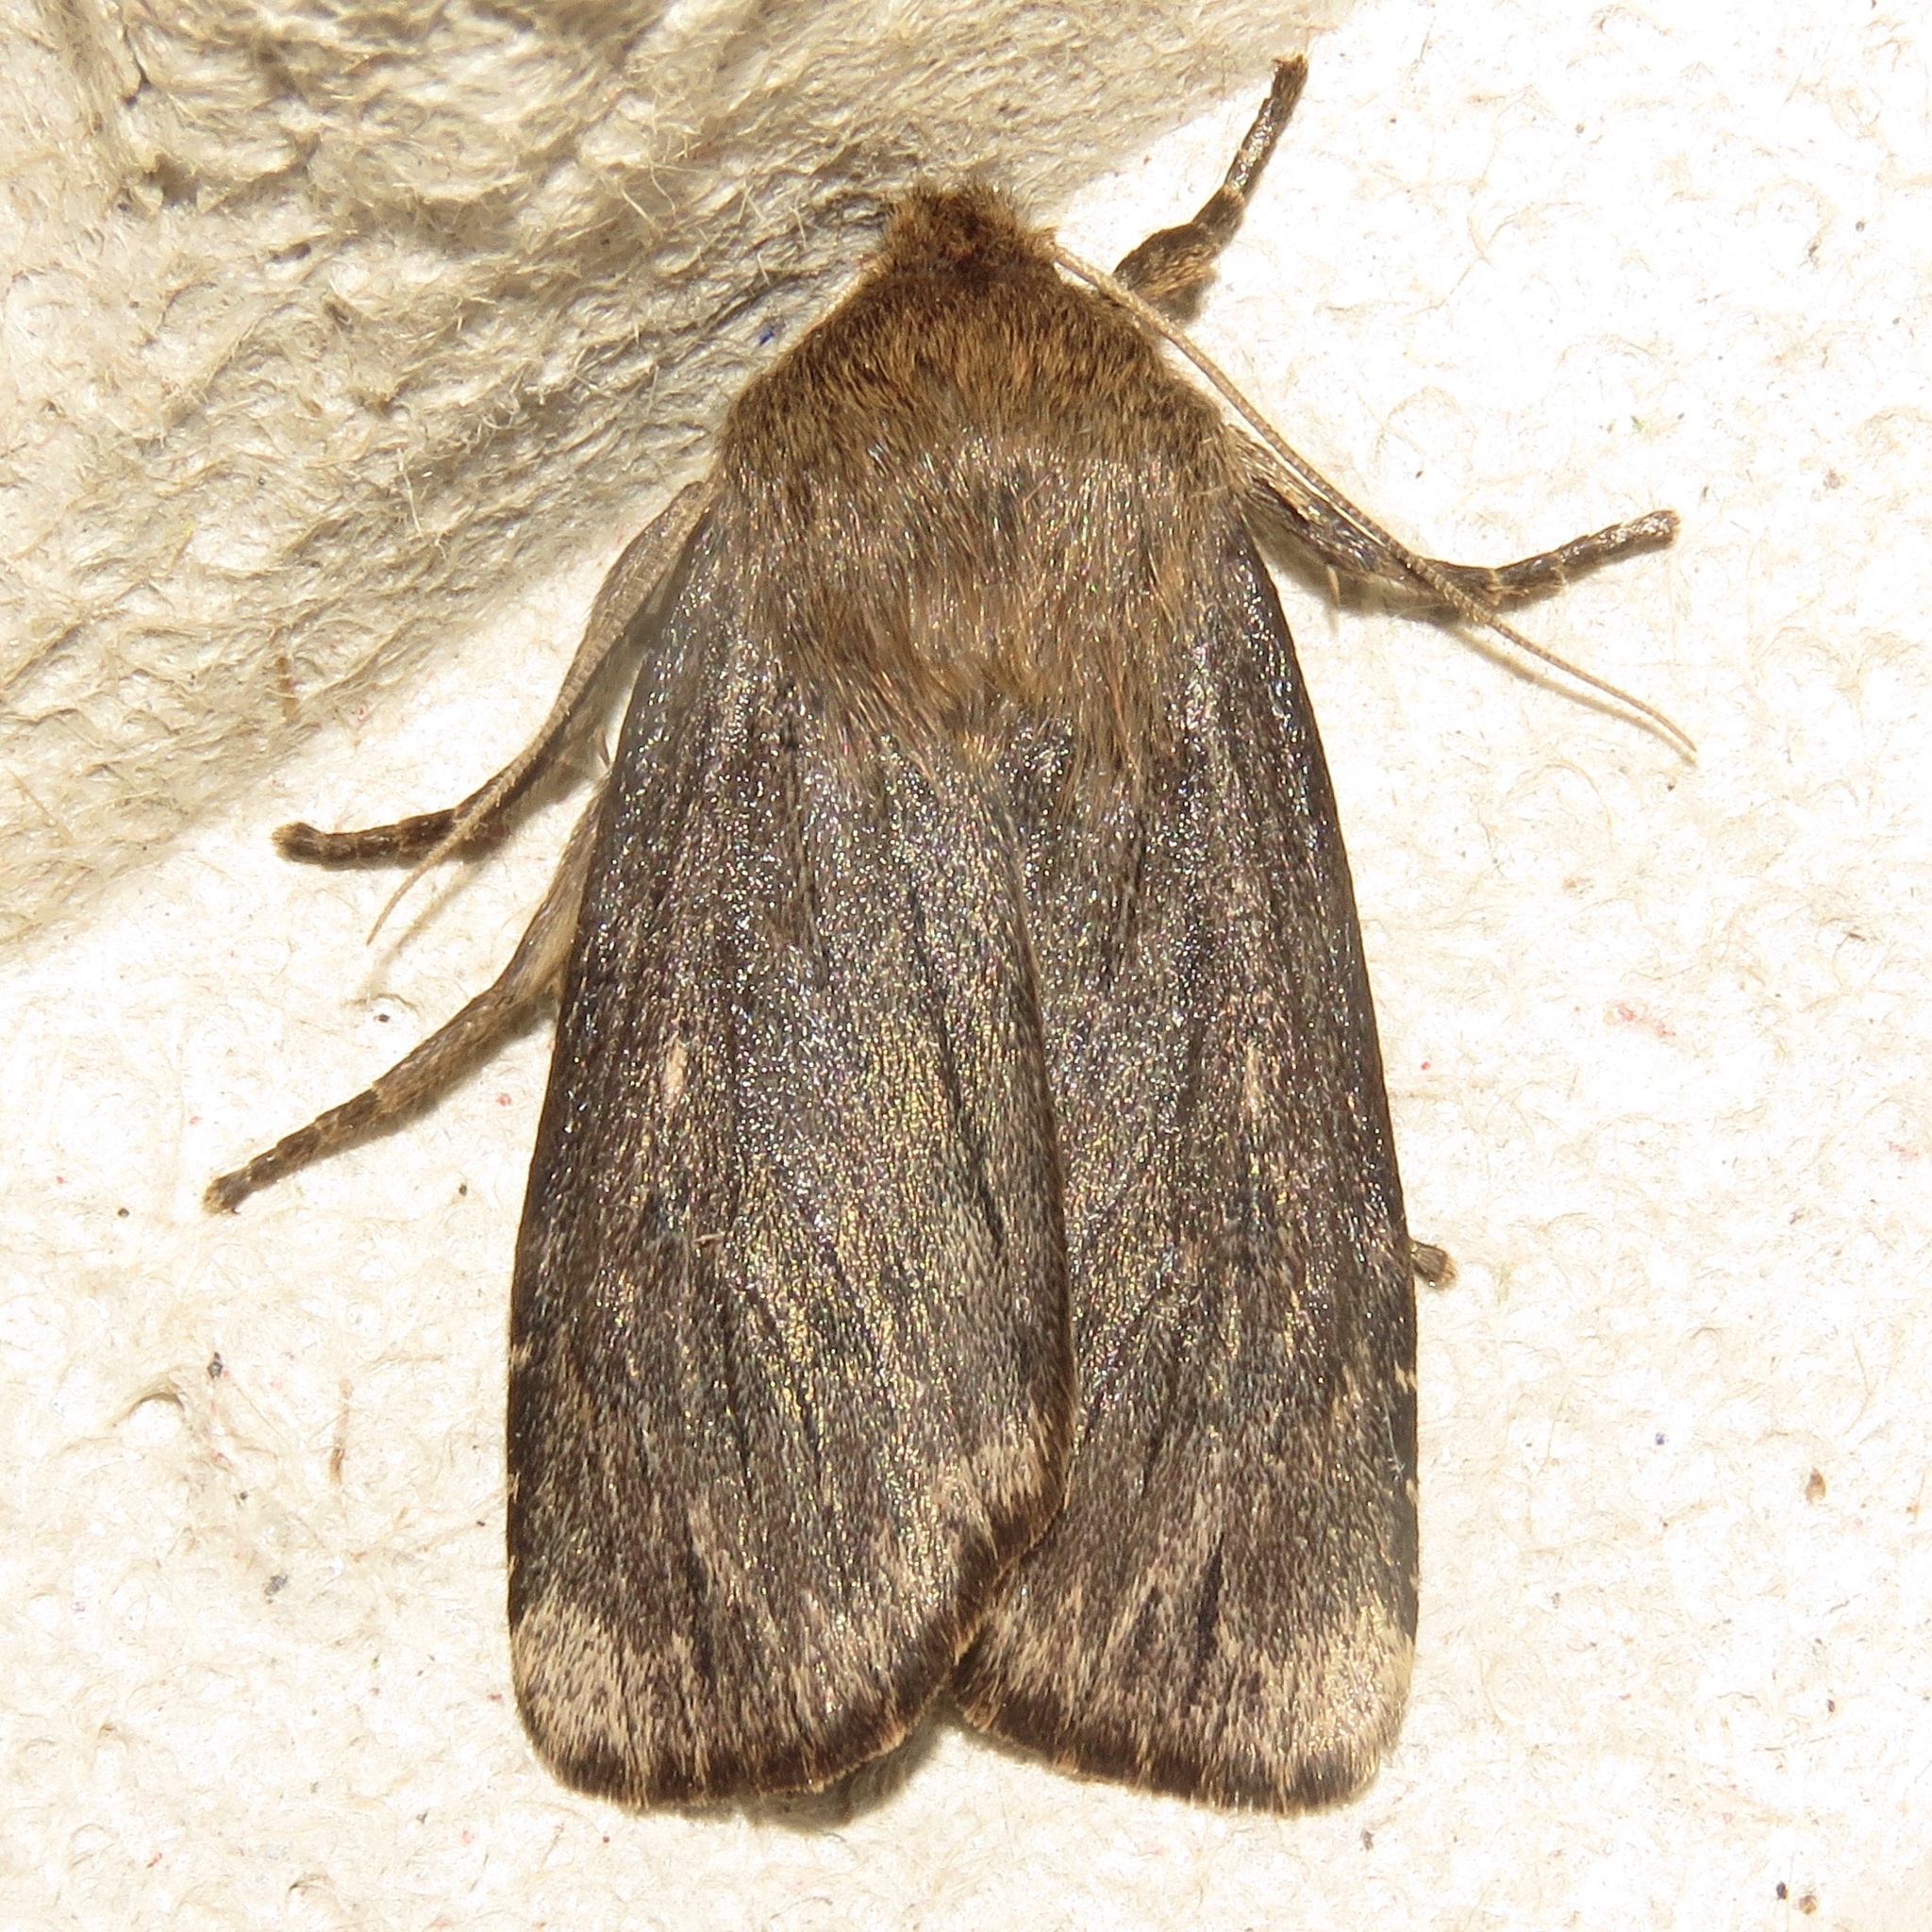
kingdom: Animalia
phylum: Arthropoda
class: Insecta
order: Lepidoptera
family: Noctuidae
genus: Ufeus
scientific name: Ufeus satyricus
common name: Brown satyr moth
